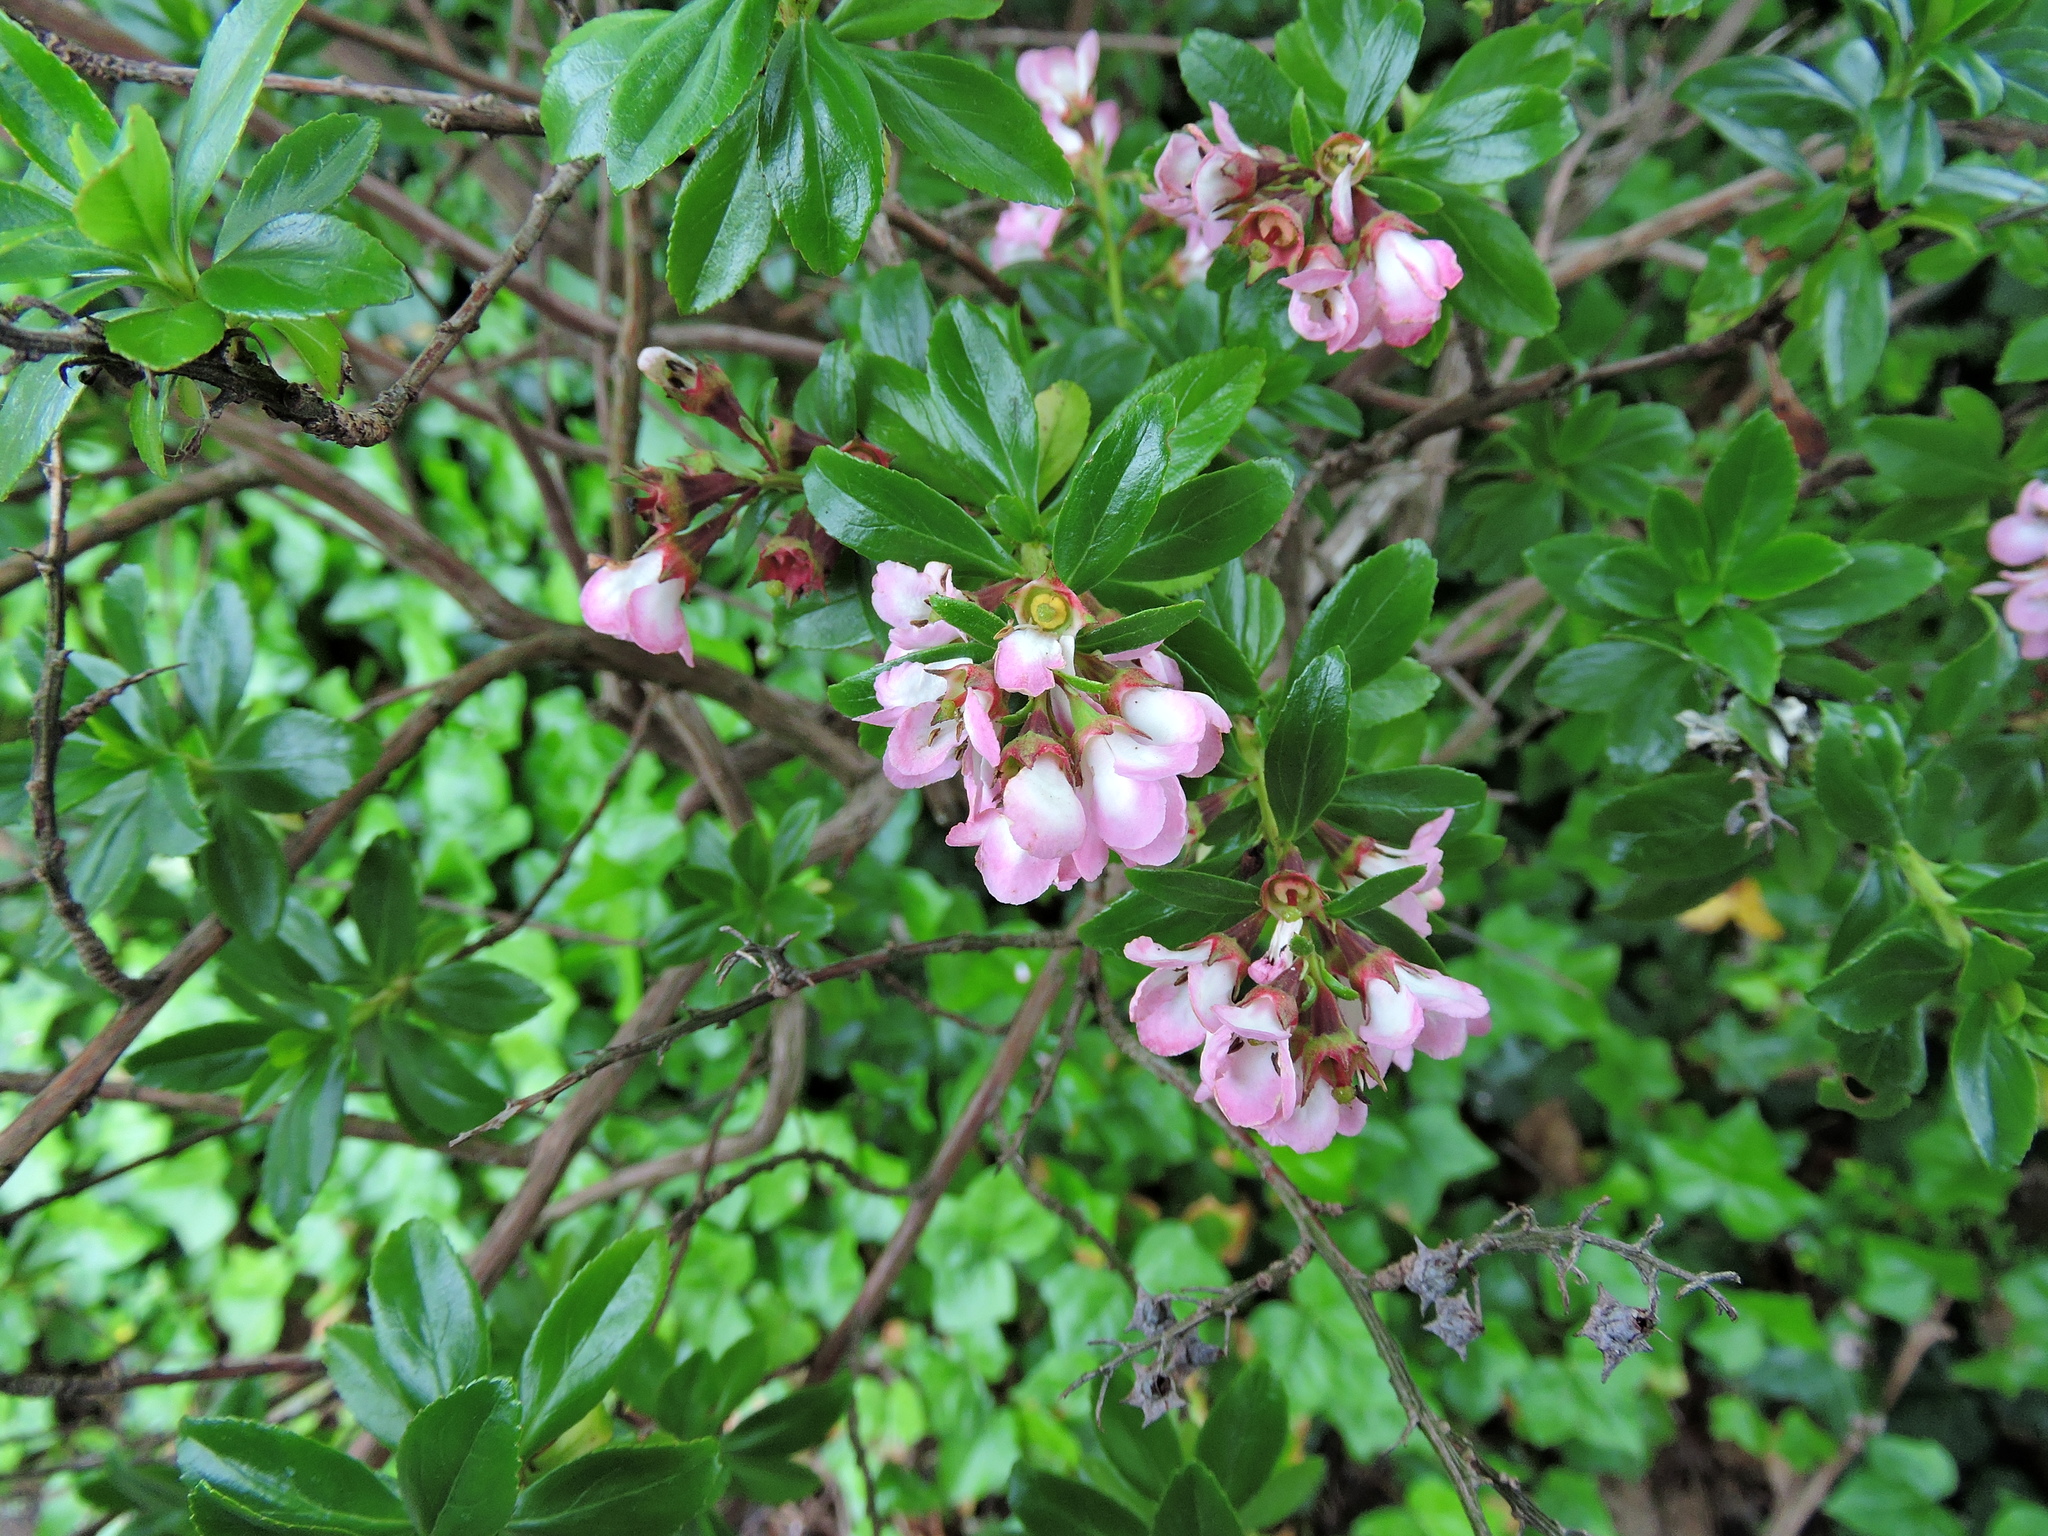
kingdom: Plantae
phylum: Tracheophyta
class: Magnoliopsida
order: Escalloniales
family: Escalloniaceae
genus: Escallonia
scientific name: Escallonia rubra
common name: Redclaws
